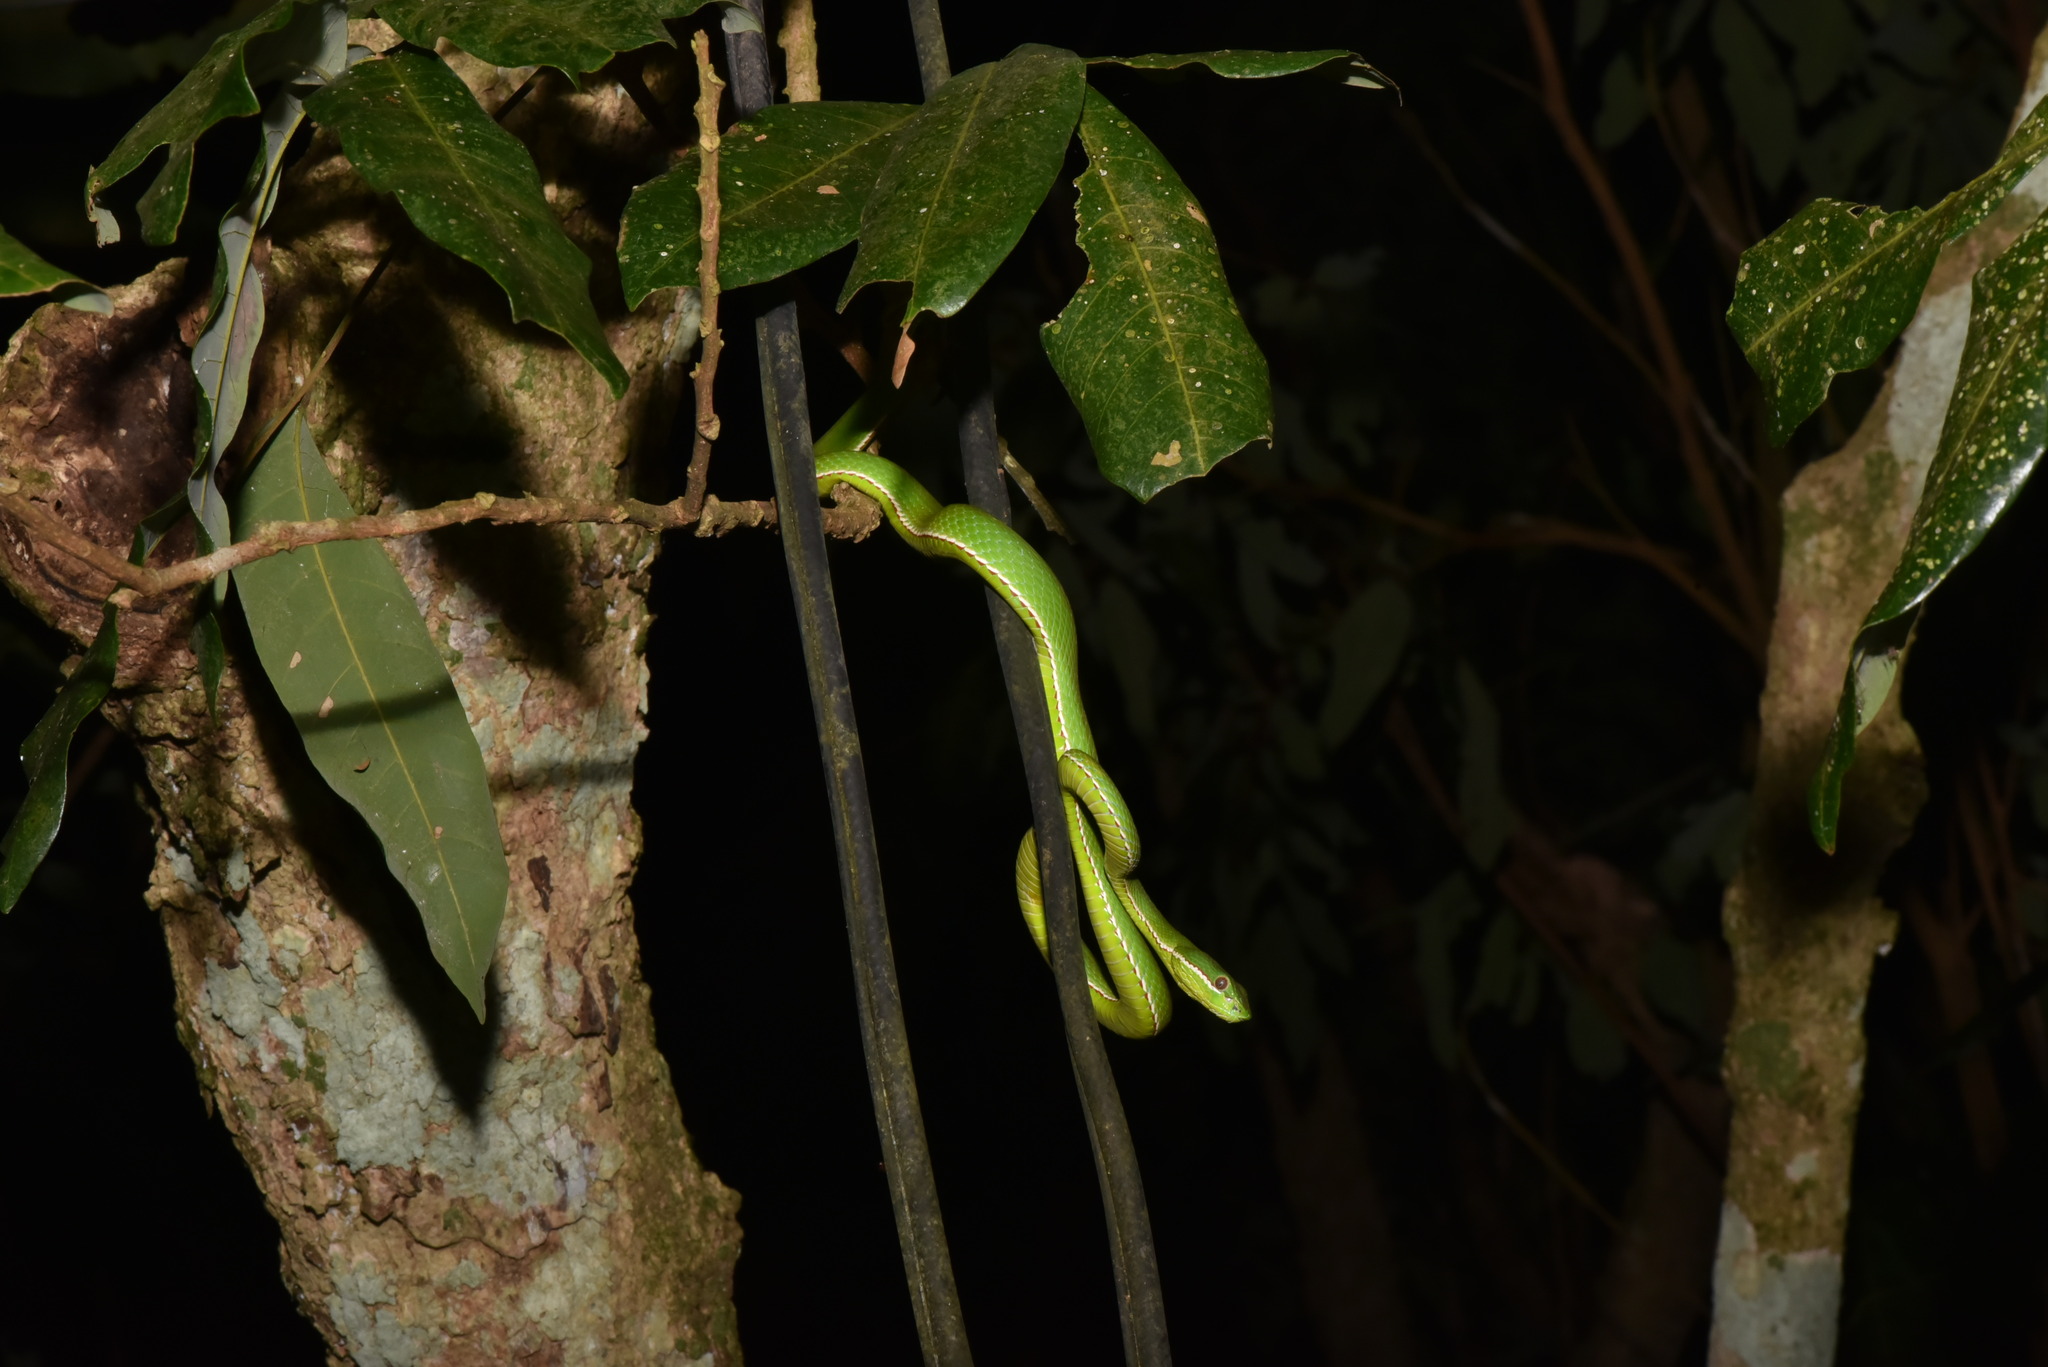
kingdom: Animalia
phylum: Chordata
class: Squamata
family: Viperidae
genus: Trimeresurus
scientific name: Trimeresurus stejnegeri
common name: Chen’s bamboo pit viper
